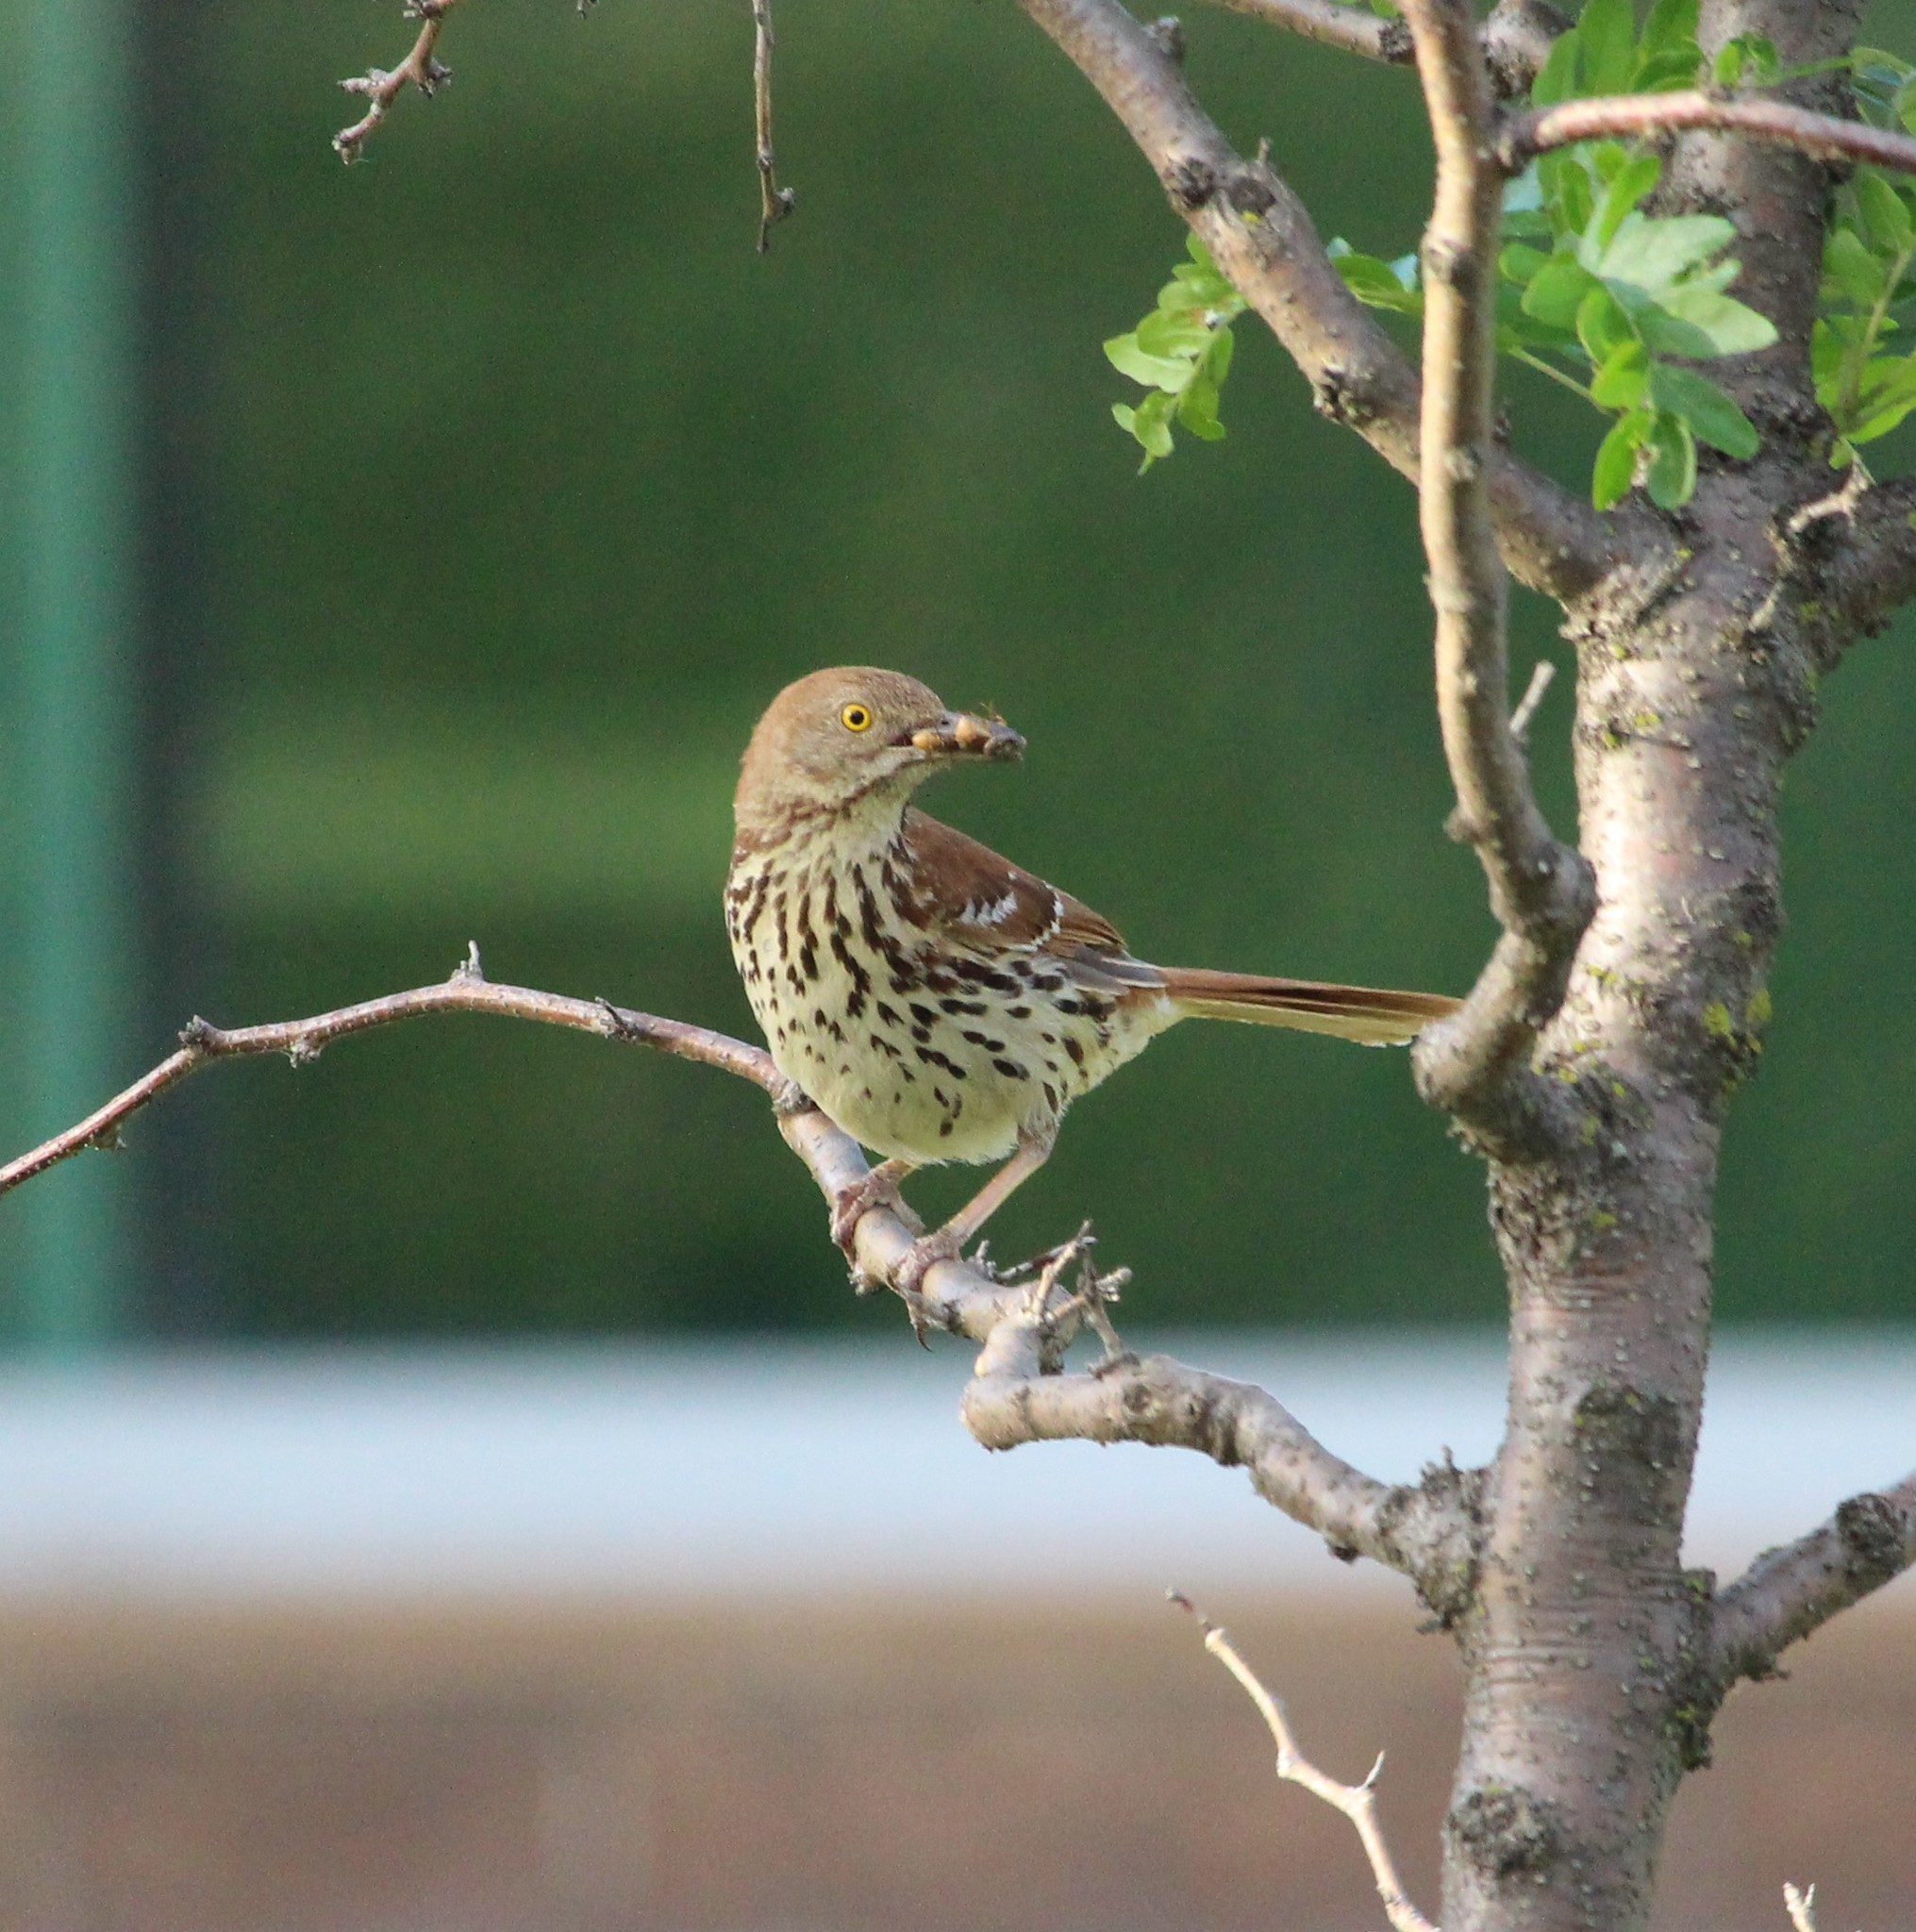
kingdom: Animalia
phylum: Chordata
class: Aves
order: Passeriformes
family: Mimidae
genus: Toxostoma
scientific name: Toxostoma rufum
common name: Brown thrasher
